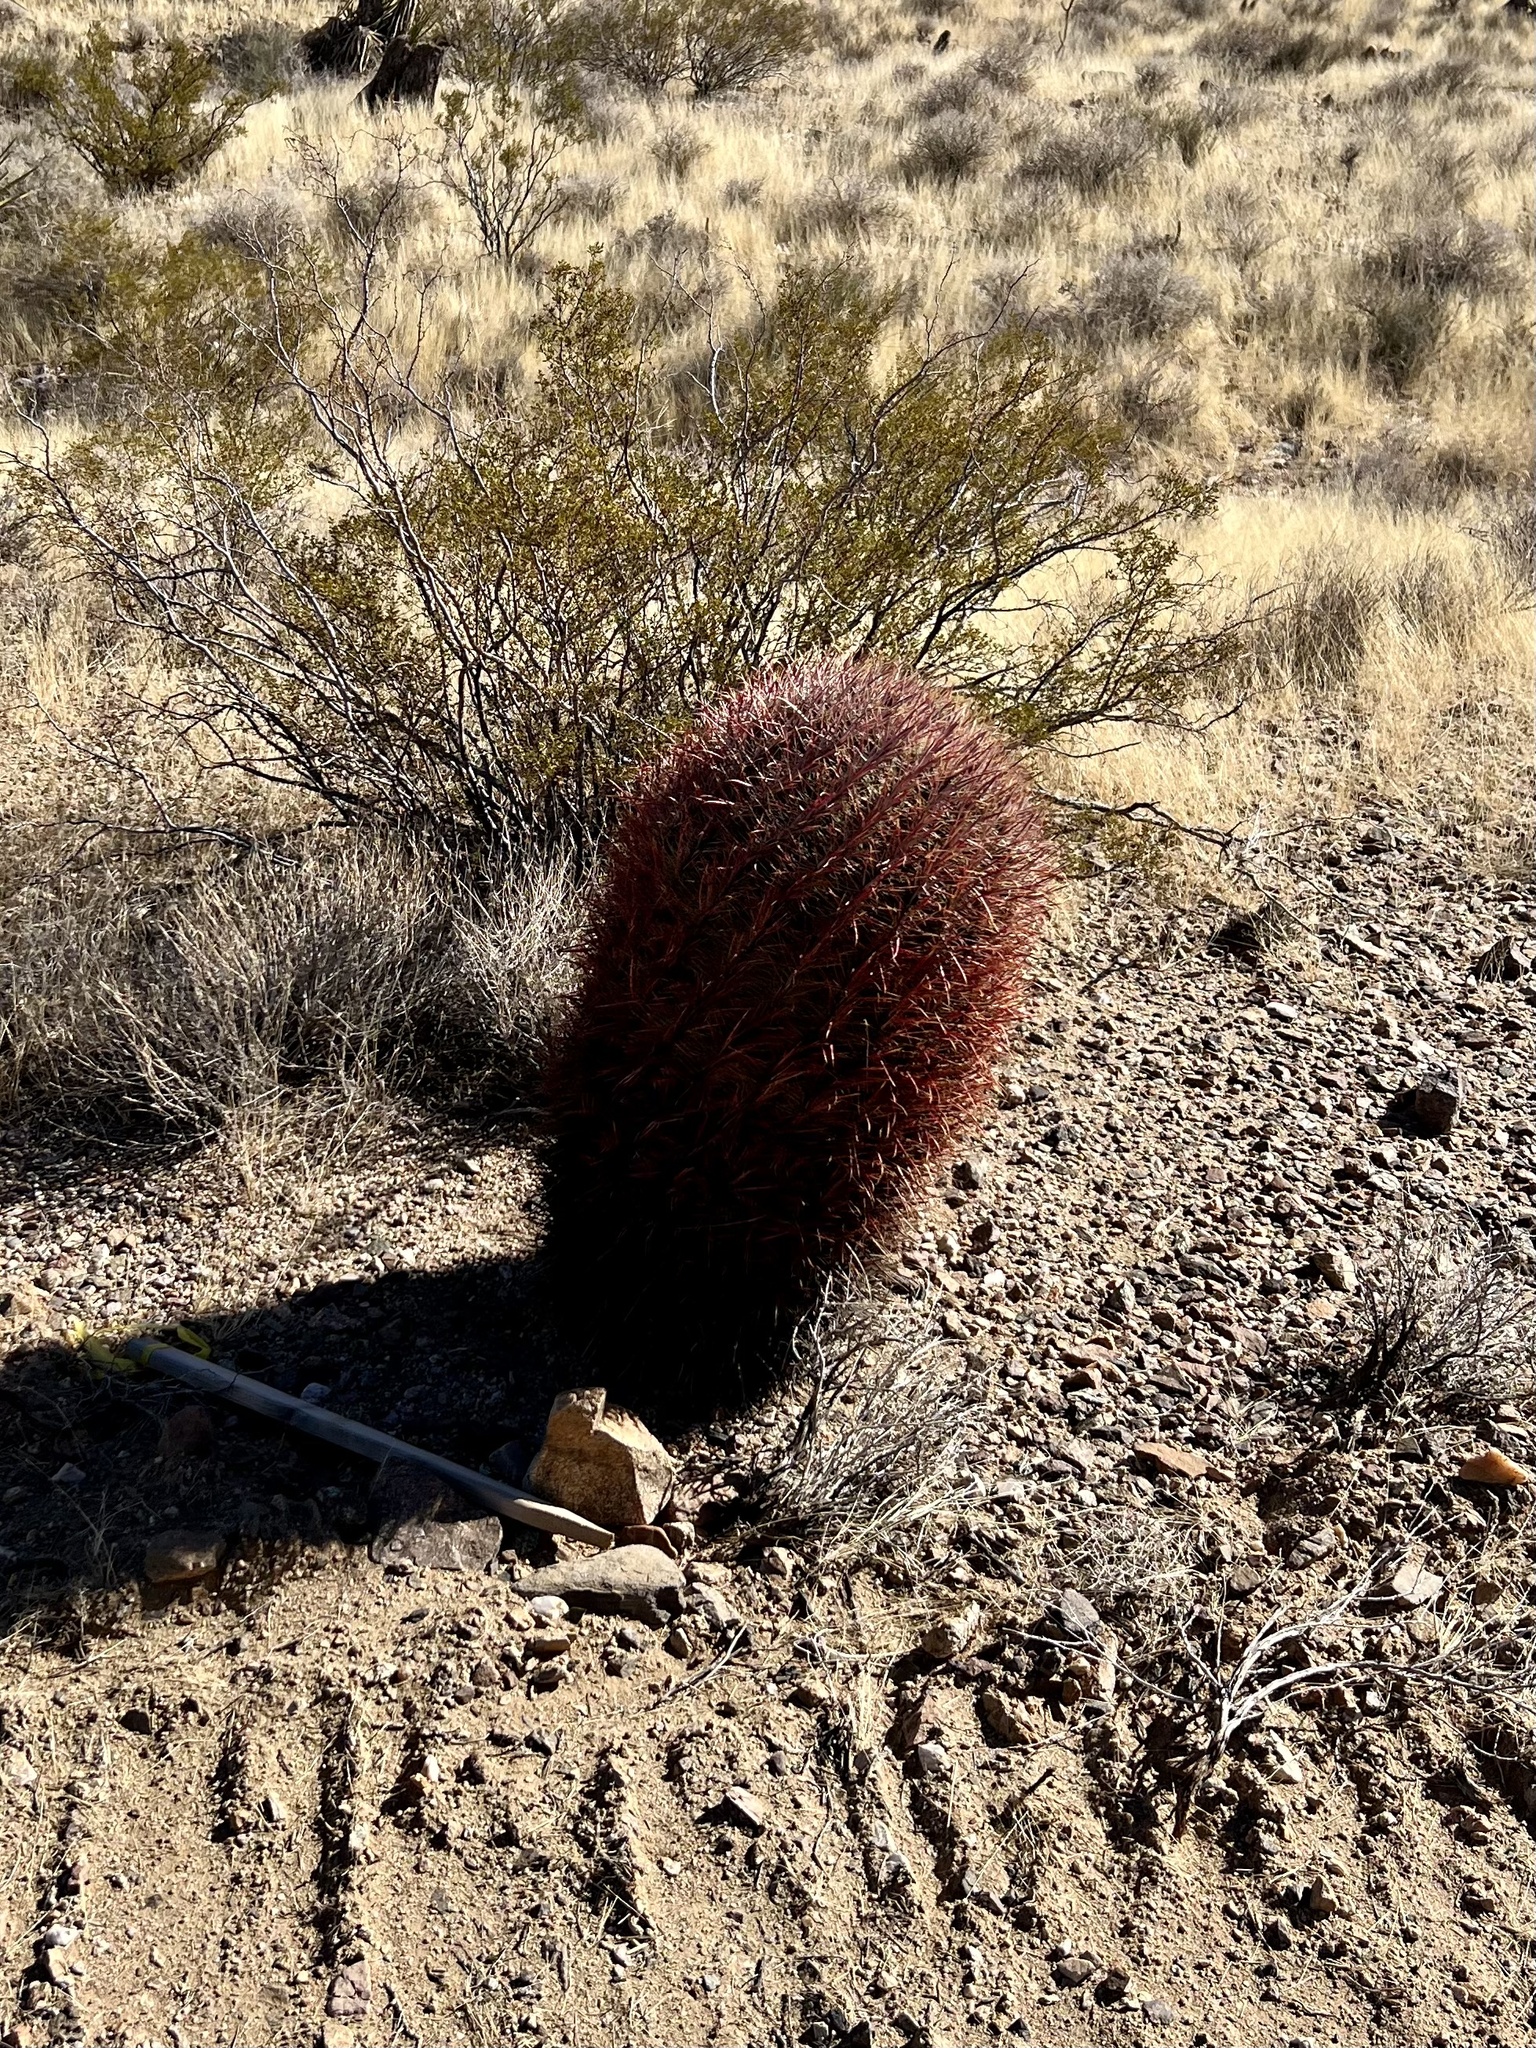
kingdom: Plantae
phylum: Tracheophyta
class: Magnoliopsida
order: Caryophyllales
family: Cactaceae
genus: Ferocactus
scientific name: Ferocactus cylindraceus
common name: California barrel cactus
